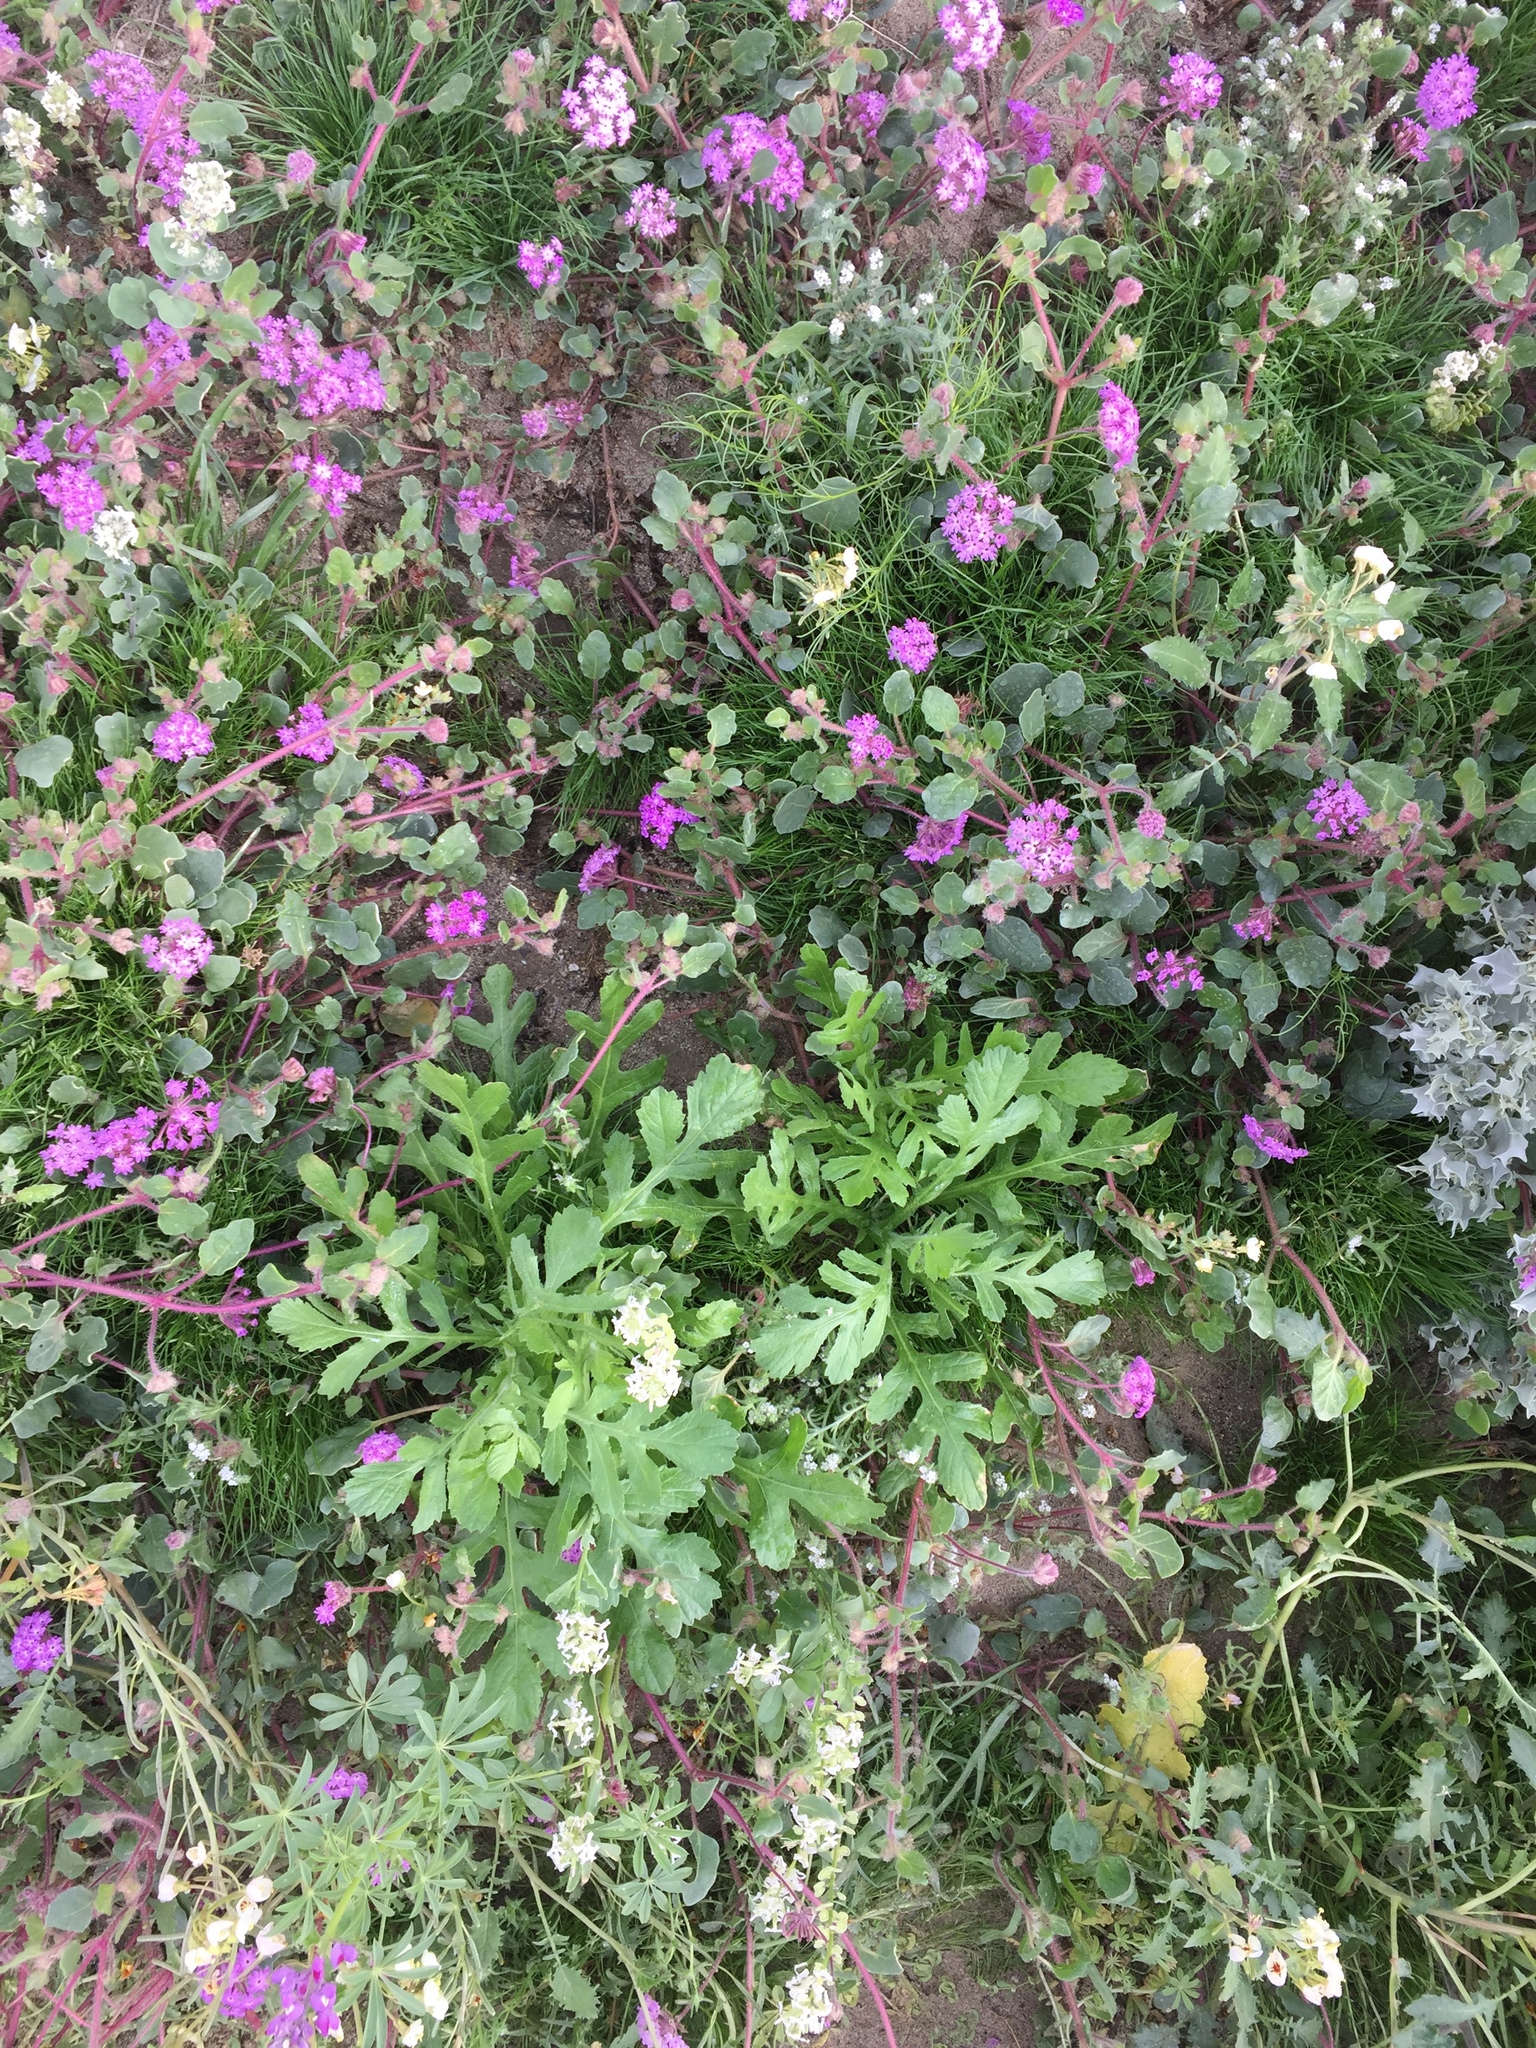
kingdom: Plantae
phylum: Tracheophyta
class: Magnoliopsida
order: Asterales
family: Asteraceae
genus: Volutaria
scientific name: Volutaria tubuliflora
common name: Desert knapweed
